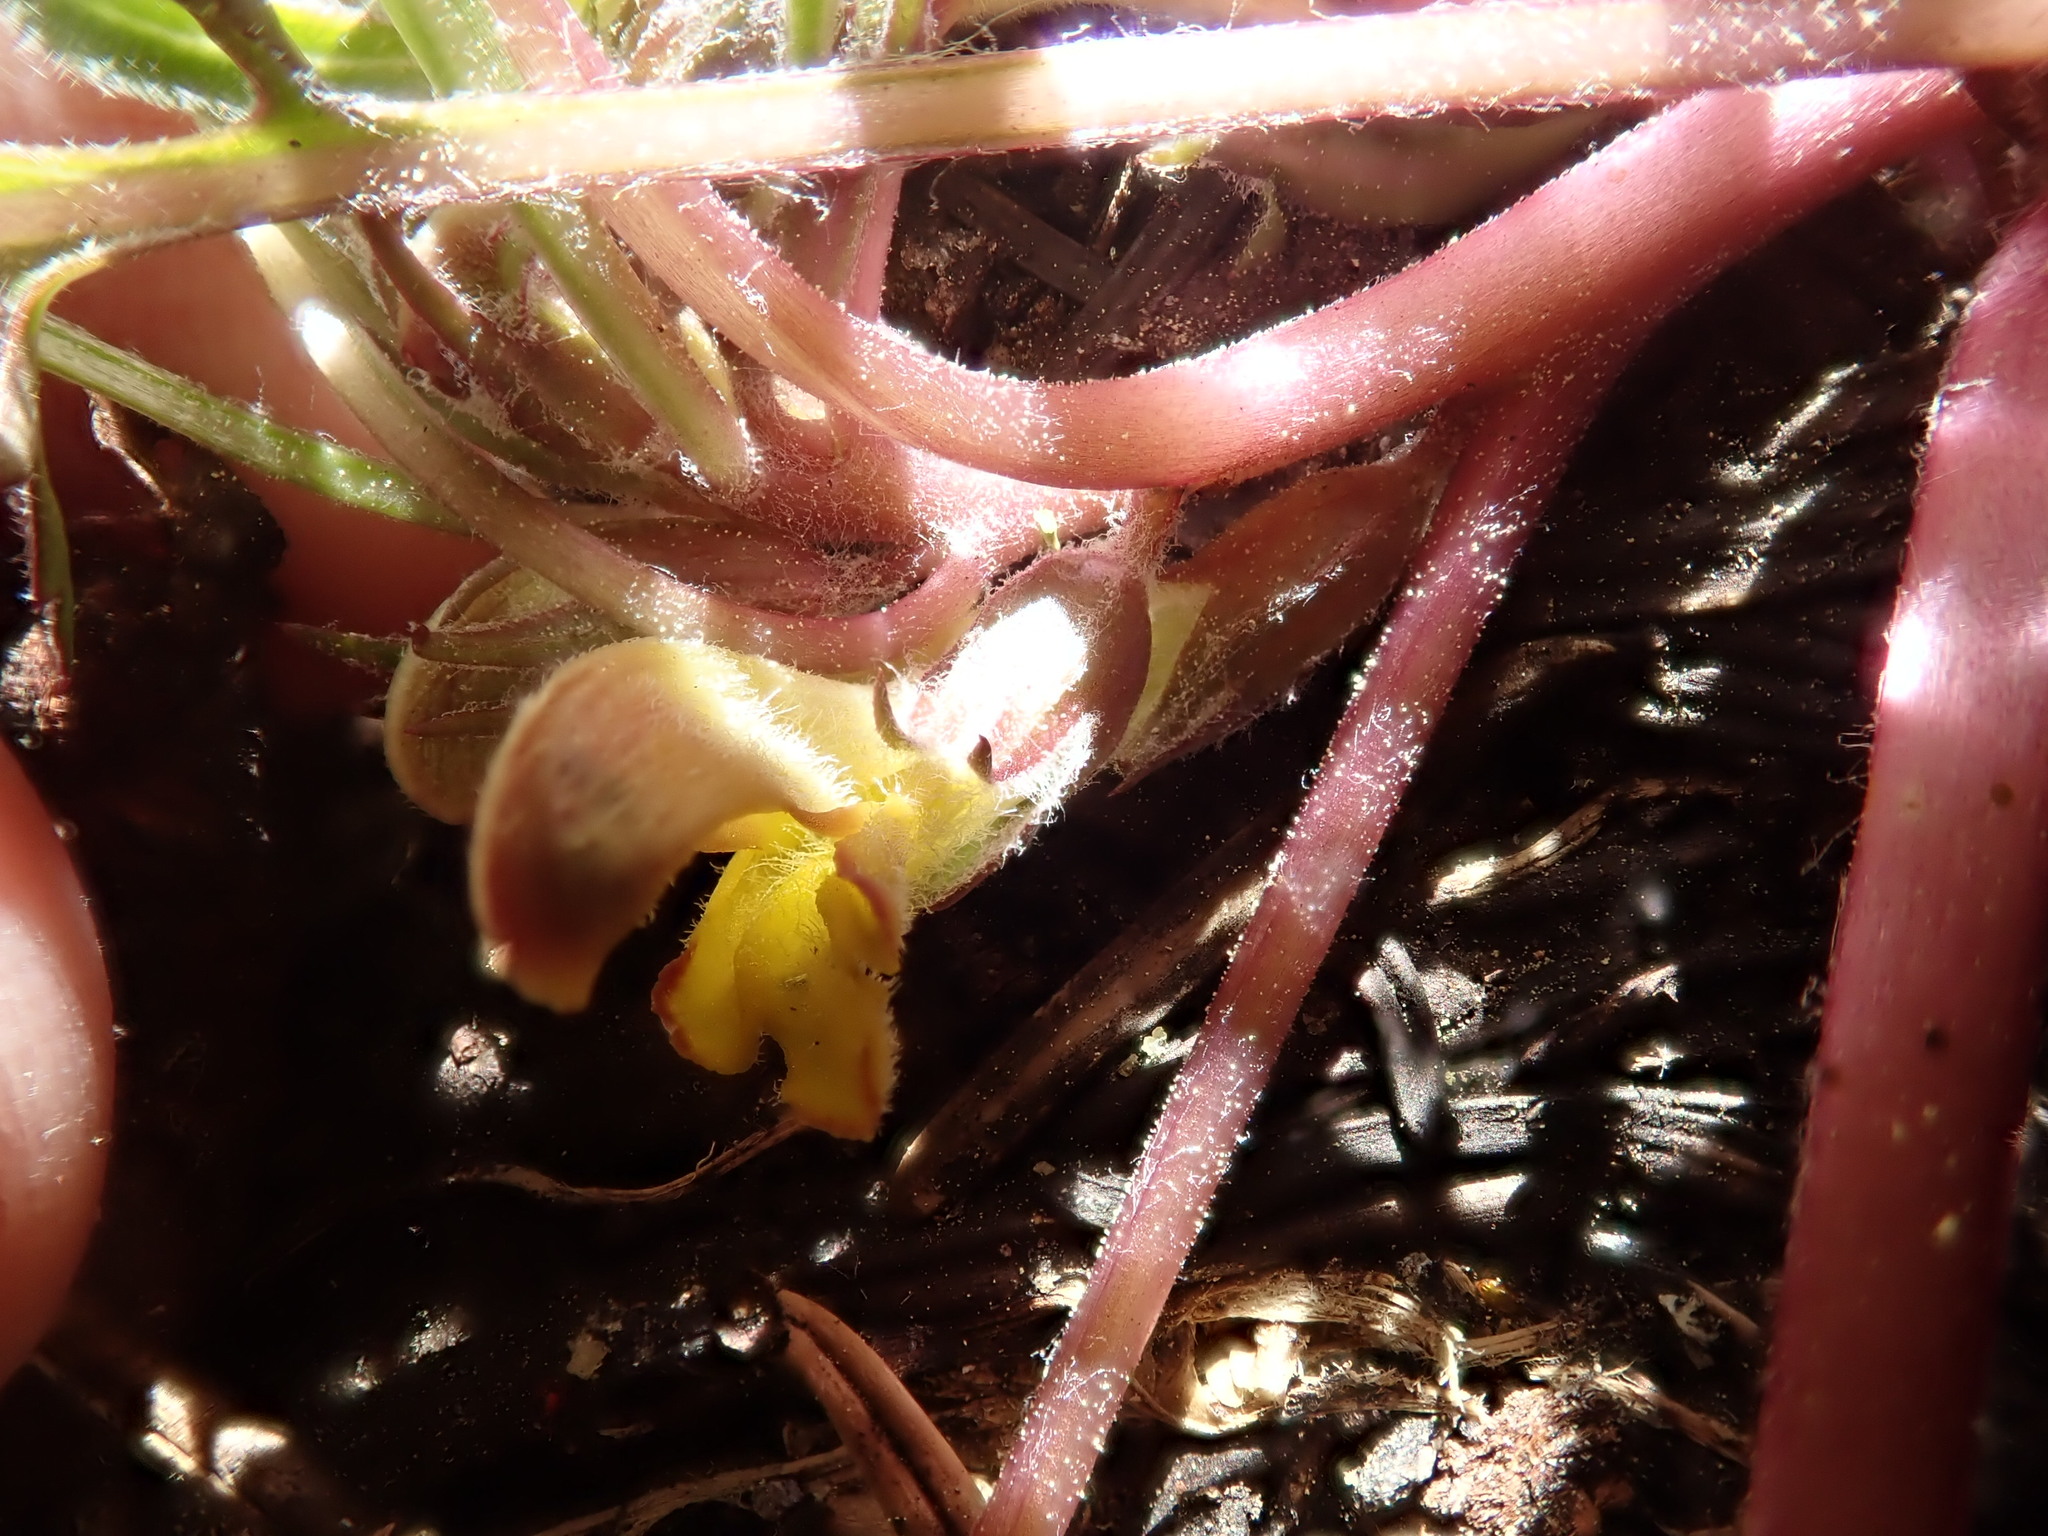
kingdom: Plantae
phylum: Tracheophyta
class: Magnoliopsida
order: Lamiales
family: Orobanchaceae
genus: Pedicularis
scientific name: Pedicularis semibarbata
